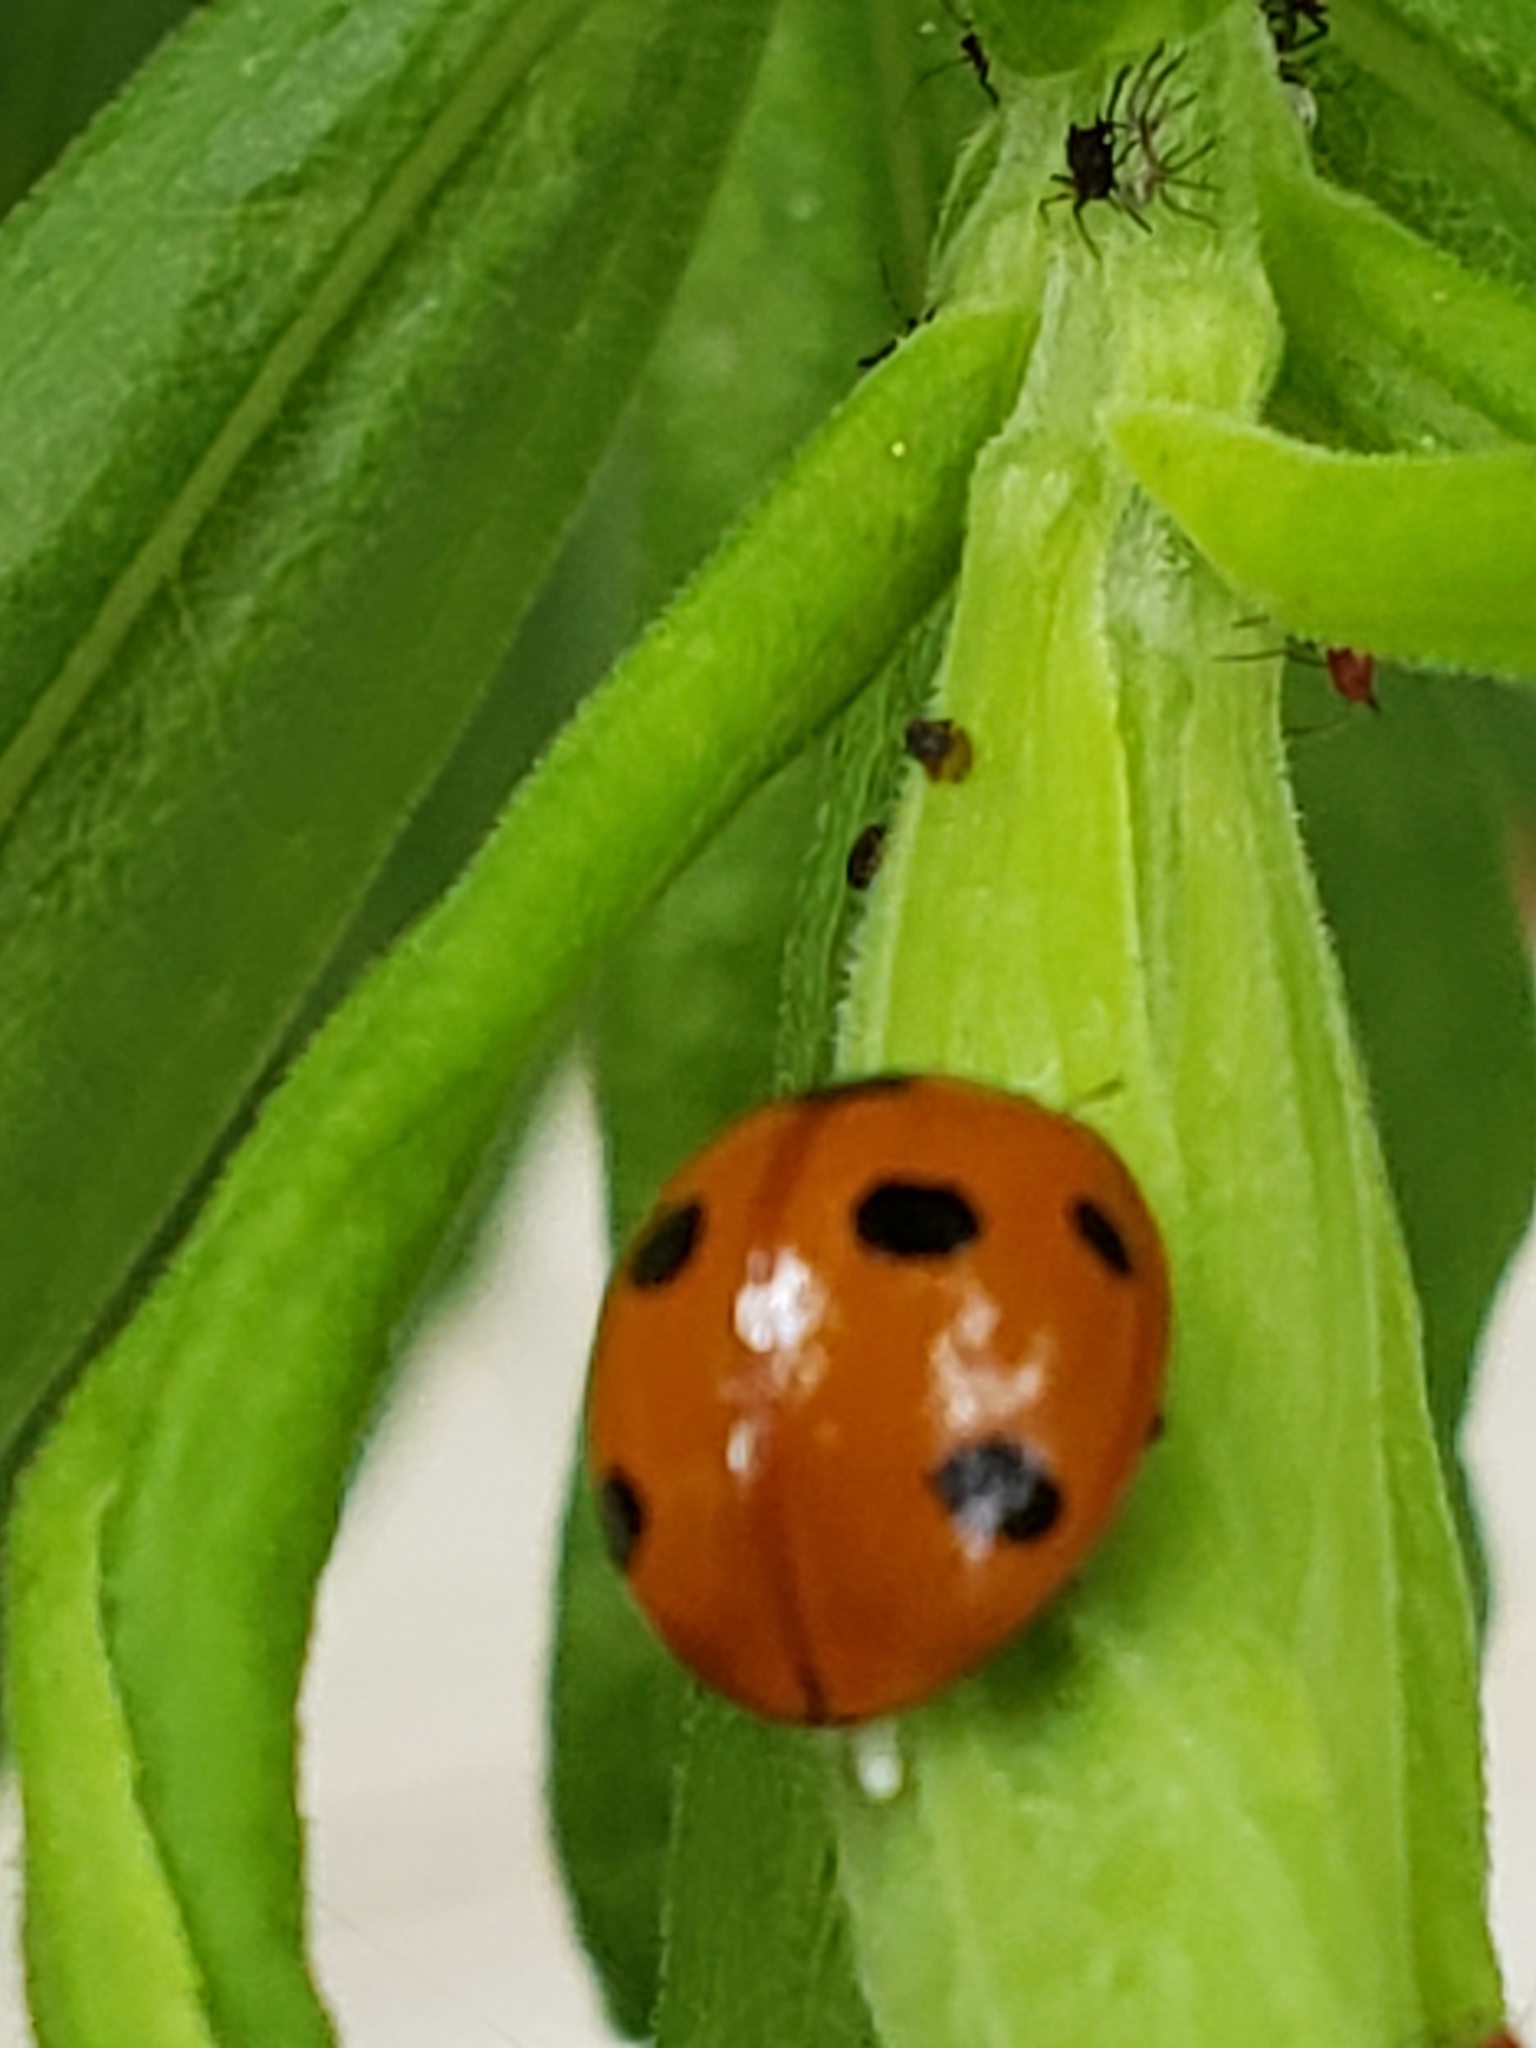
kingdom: Animalia
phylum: Arthropoda
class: Insecta
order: Coleoptera
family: Coccinellidae
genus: Coccinella
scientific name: Coccinella septempunctata
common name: Sevenspotted lady beetle
